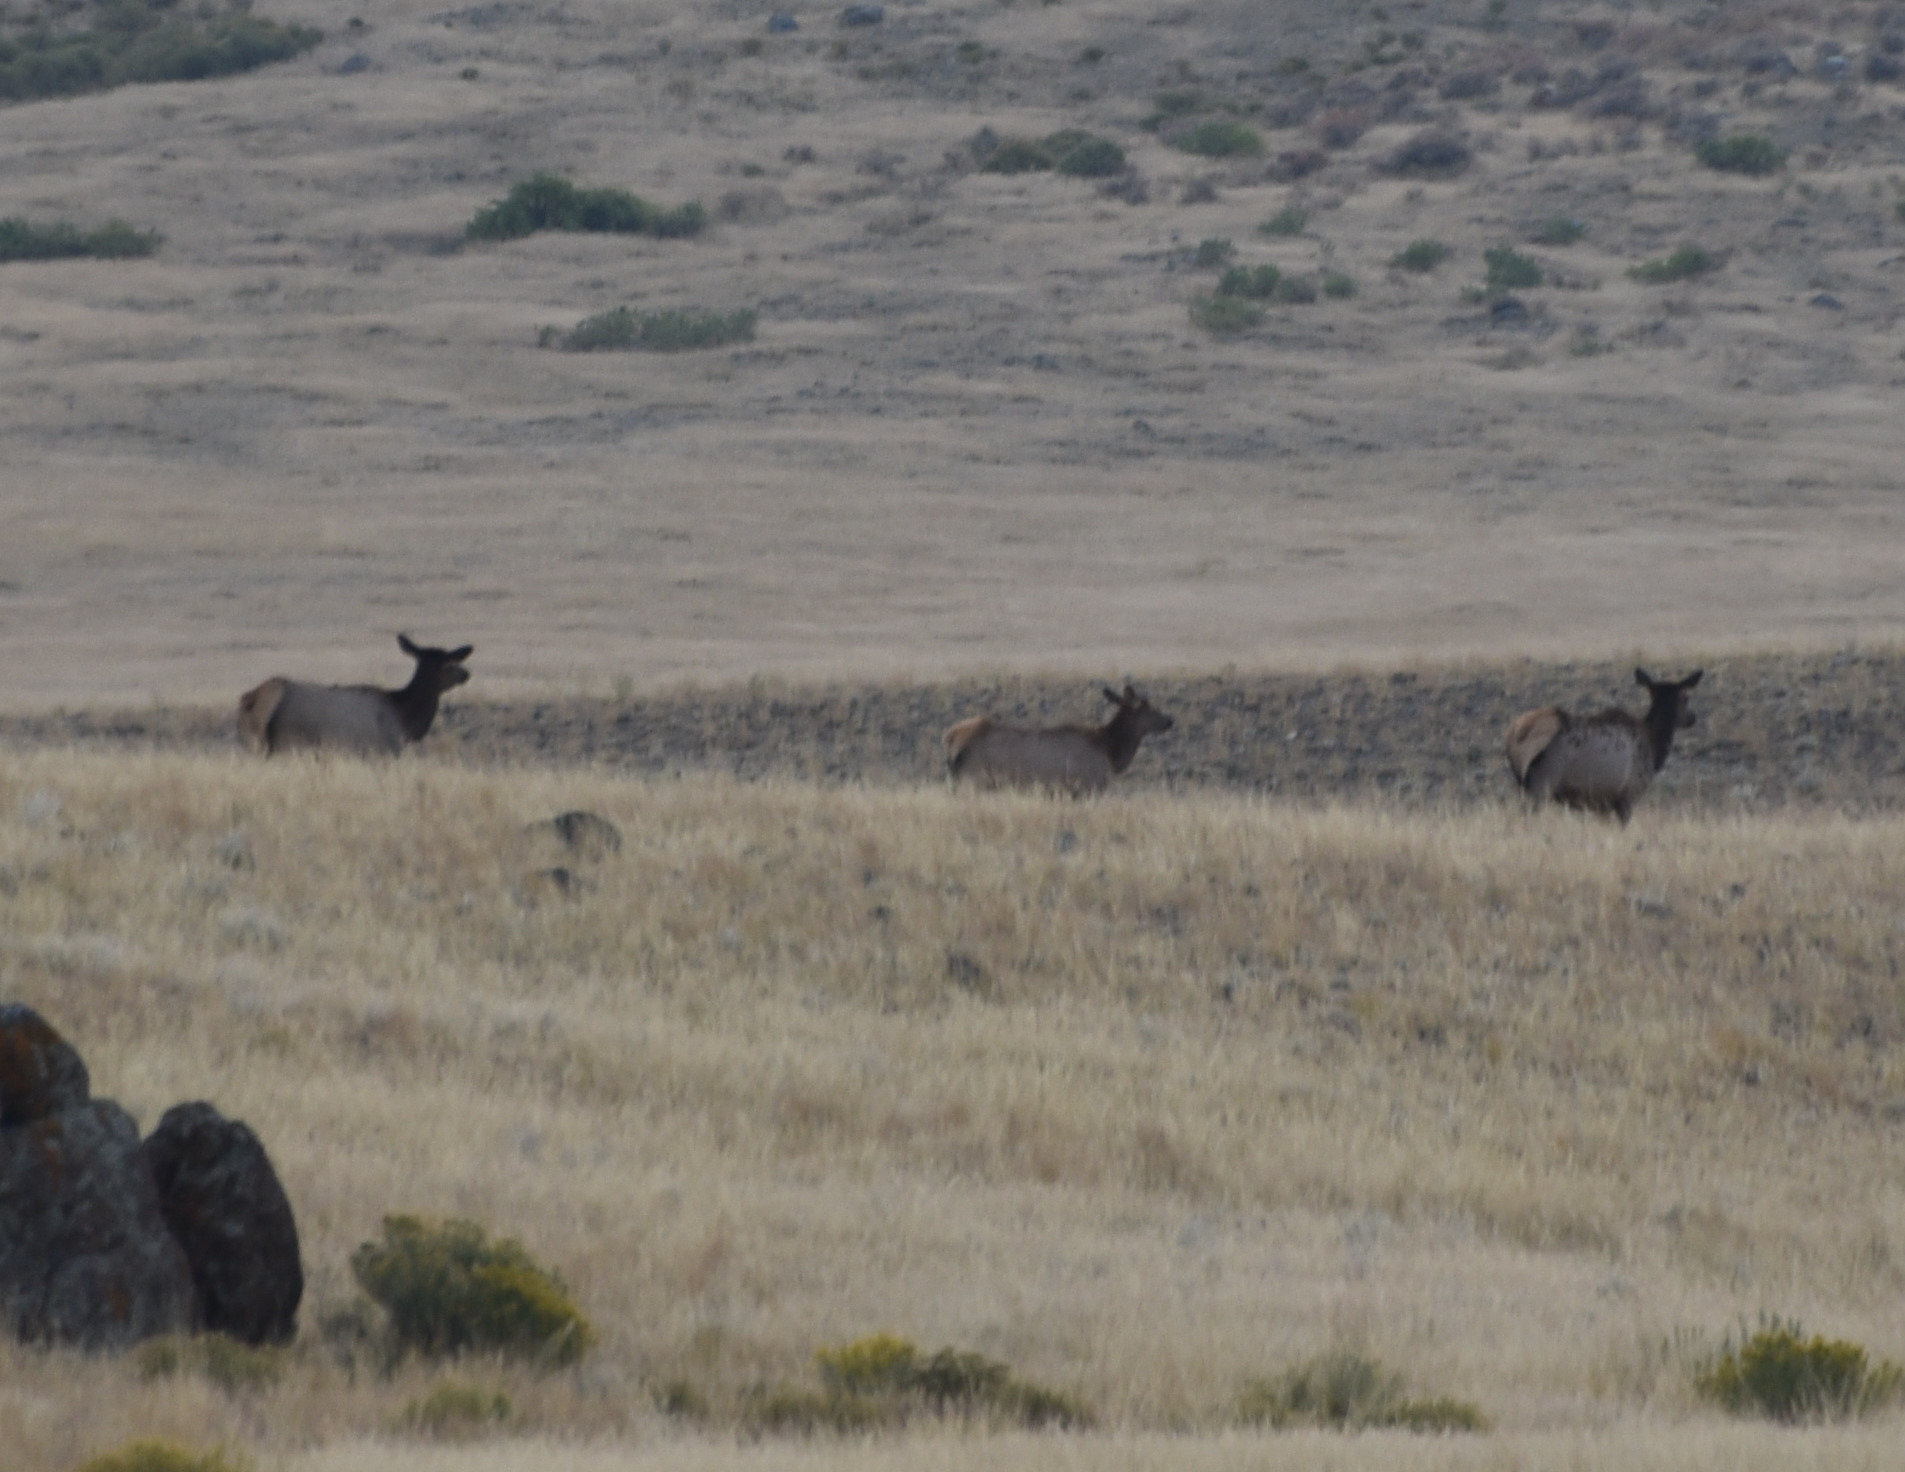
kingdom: Animalia
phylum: Chordata
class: Mammalia
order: Artiodactyla
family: Cervidae
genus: Cervus
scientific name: Cervus elaphus
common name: Red deer
